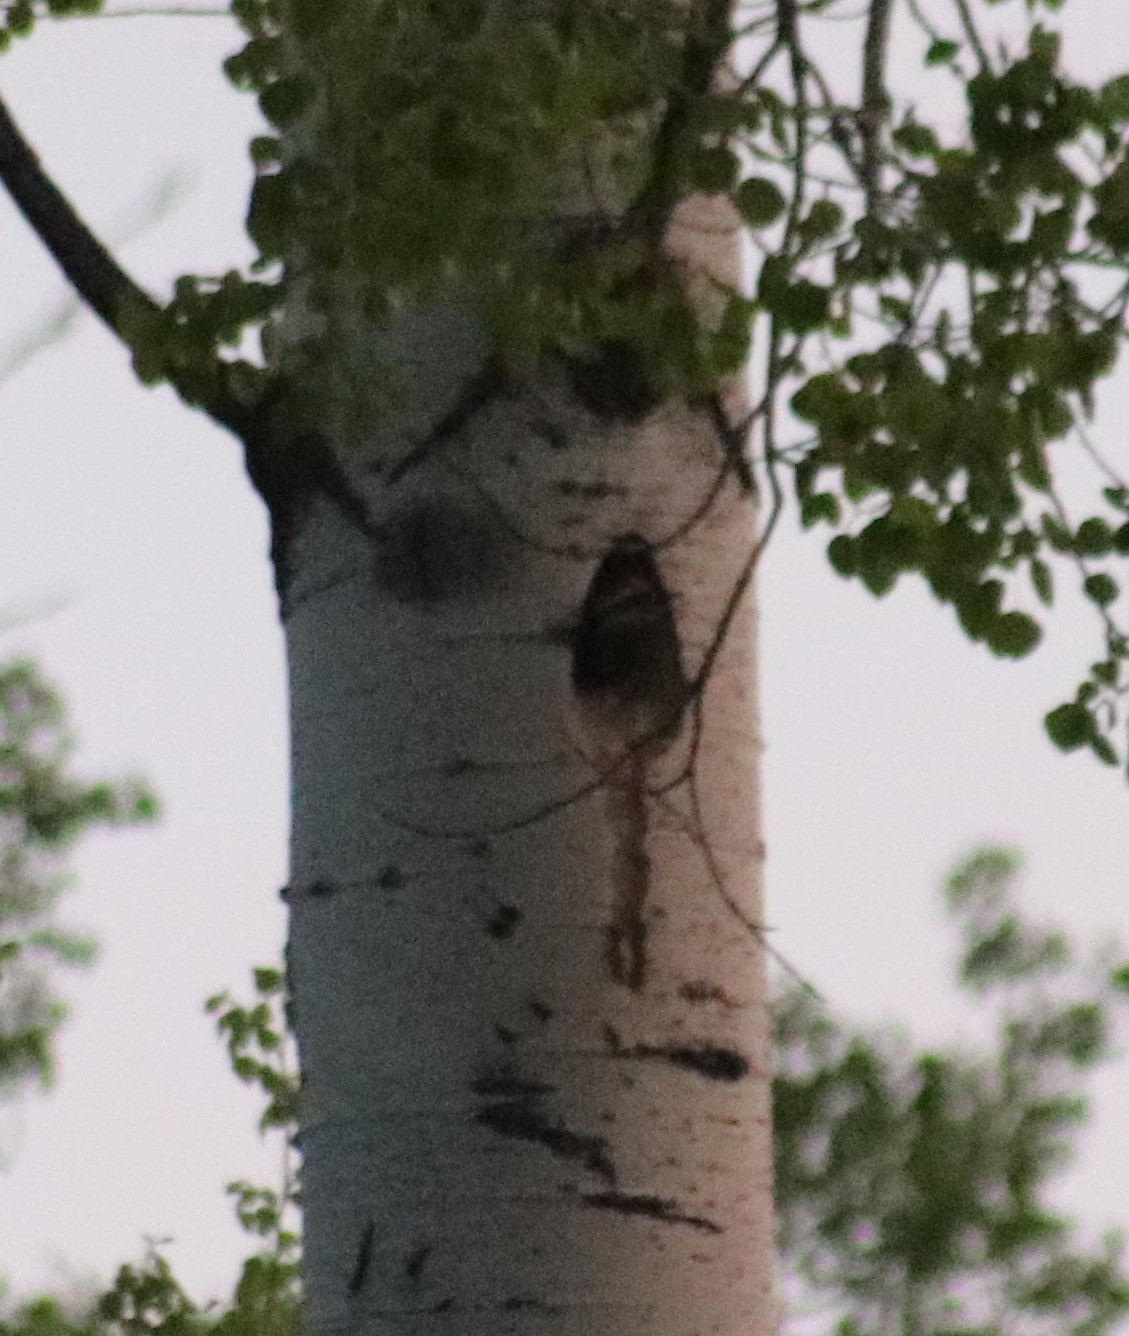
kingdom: Animalia
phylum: Chordata
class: Aves
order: Piciformes
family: Picidae
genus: Dryocopus
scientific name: Dryocopus pileatus
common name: Pileated woodpecker
